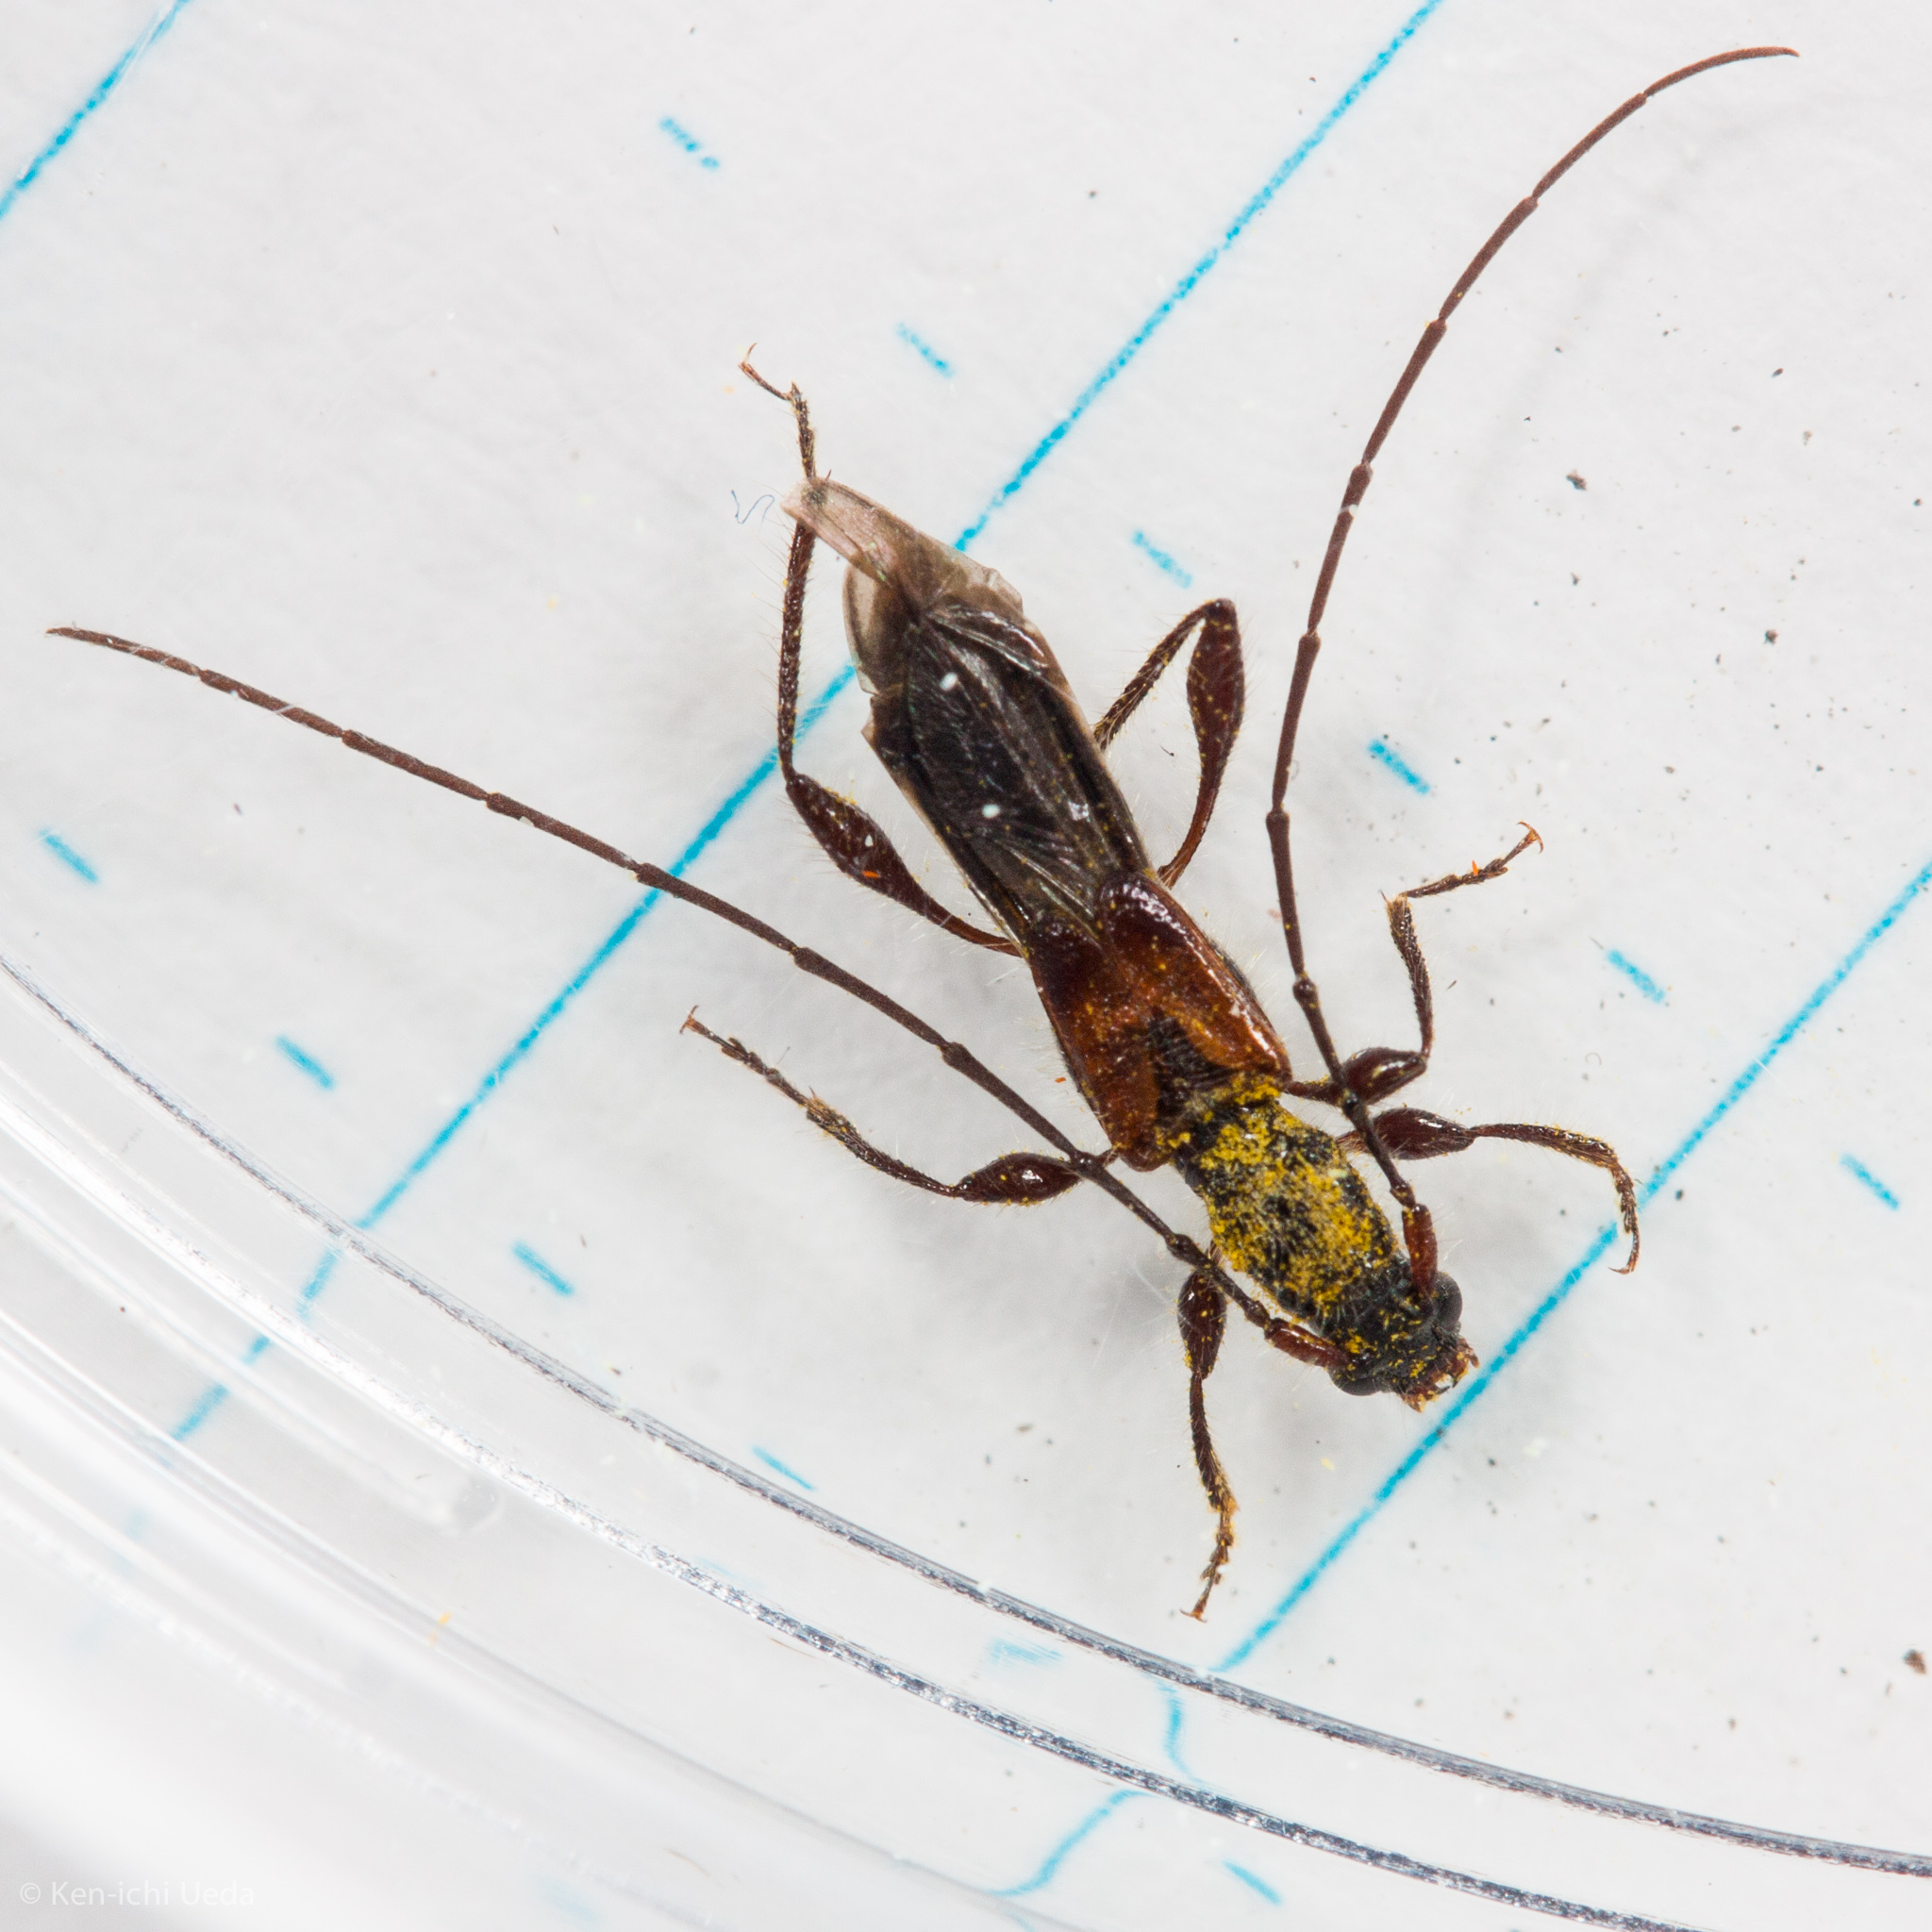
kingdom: Animalia
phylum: Arthropoda
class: Insecta
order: Coleoptera
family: Cerambycidae
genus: Molorchus
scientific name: Molorchus longicollis
